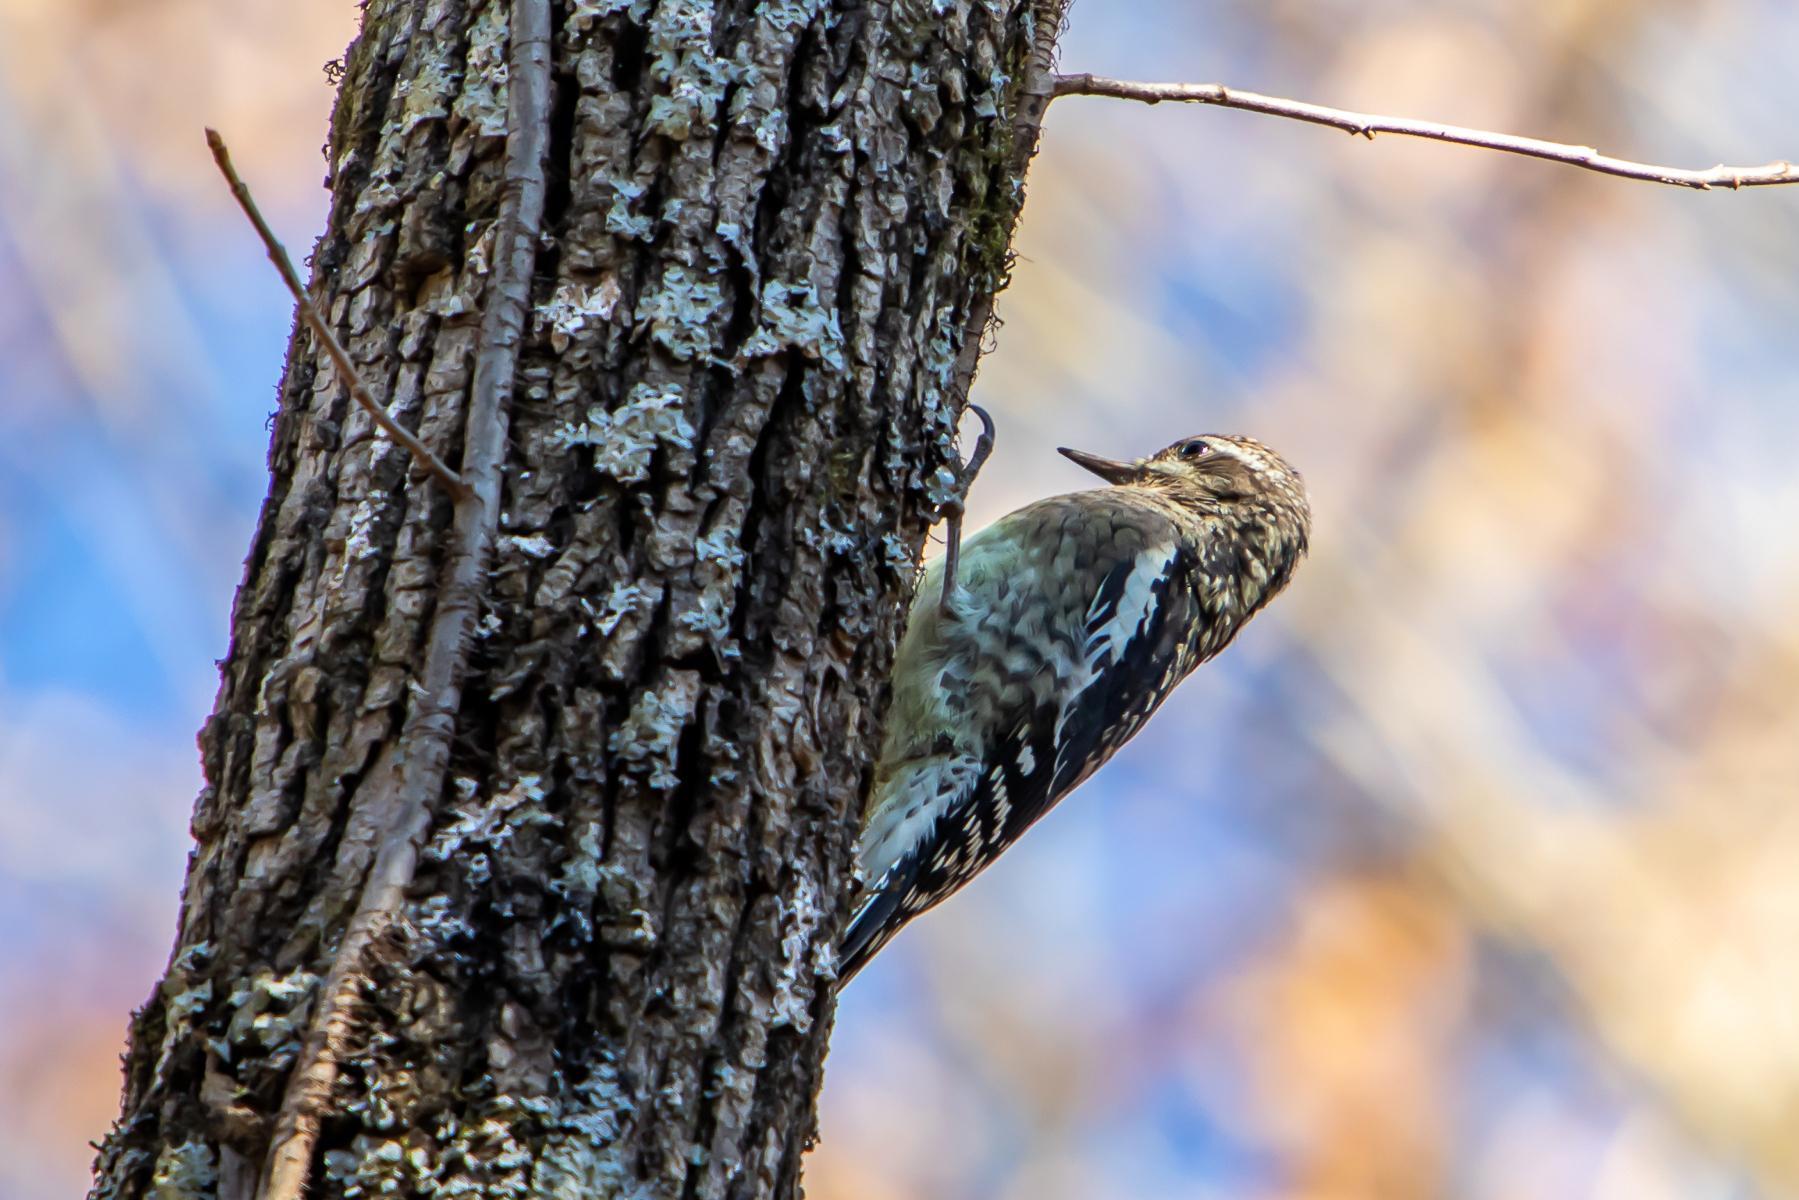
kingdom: Animalia
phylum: Chordata
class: Aves
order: Piciformes
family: Picidae
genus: Sphyrapicus
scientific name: Sphyrapicus varius
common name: Yellow-bellied sapsucker
